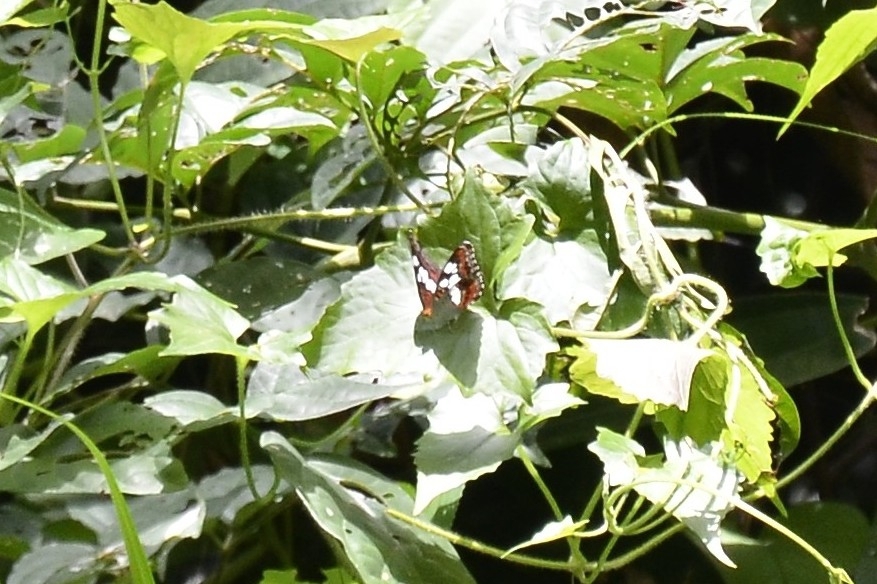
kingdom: Animalia
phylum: Arthropoda
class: Insecta
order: Lepidoptera
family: Nymphalidae
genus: Limenitis
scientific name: Limenitis Moduza procris
